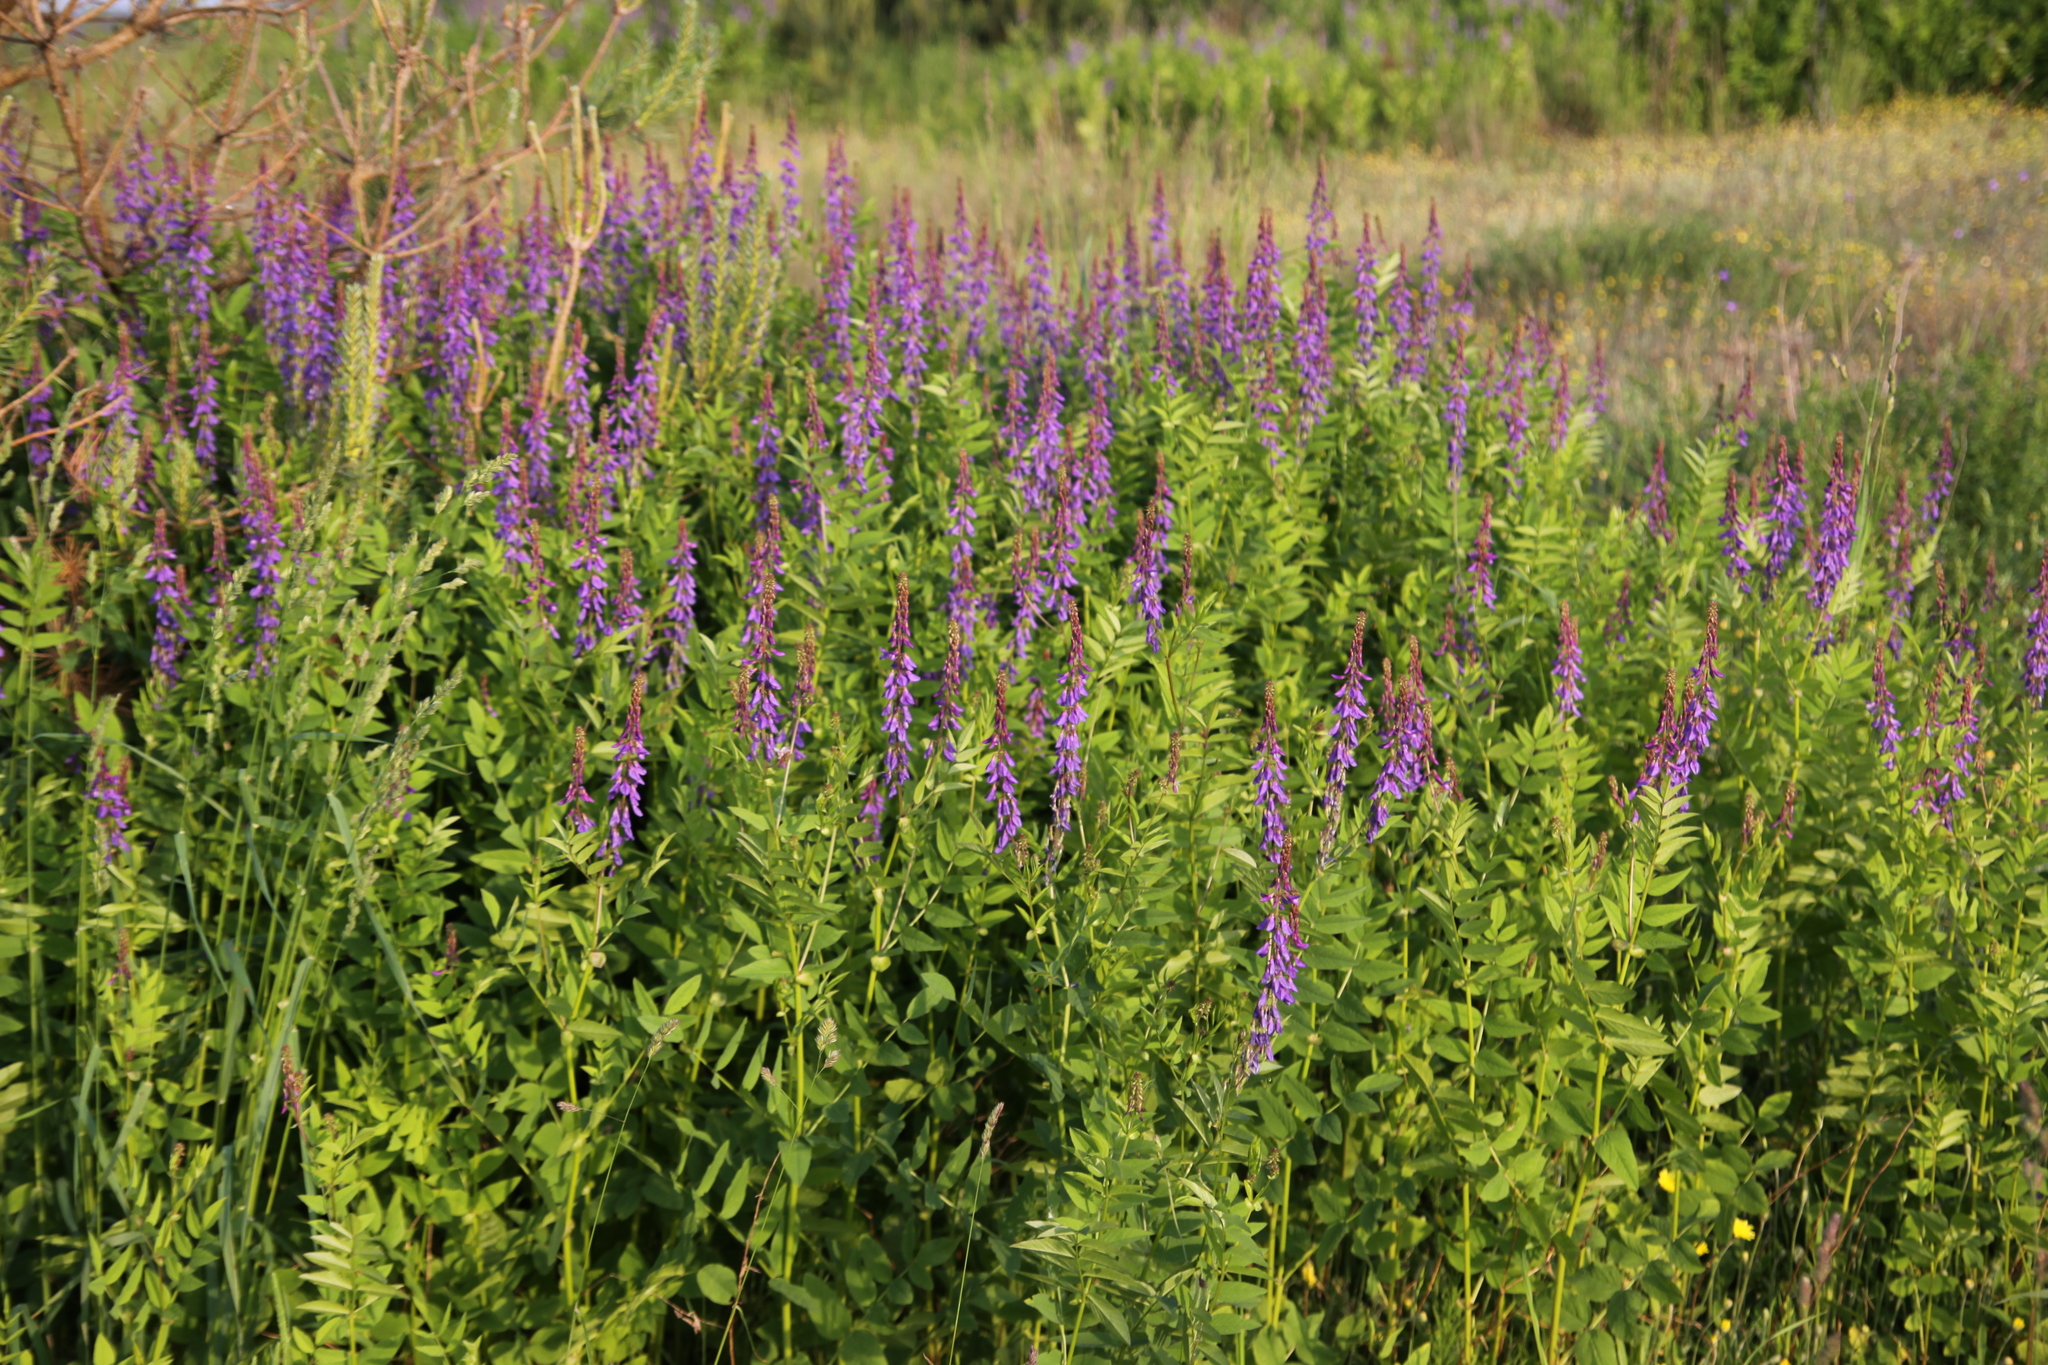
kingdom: Plantae
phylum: Tracheophyta
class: Magnoliopsida
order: Fabales
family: Fabaceae
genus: Galega
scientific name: Galega orientalis
